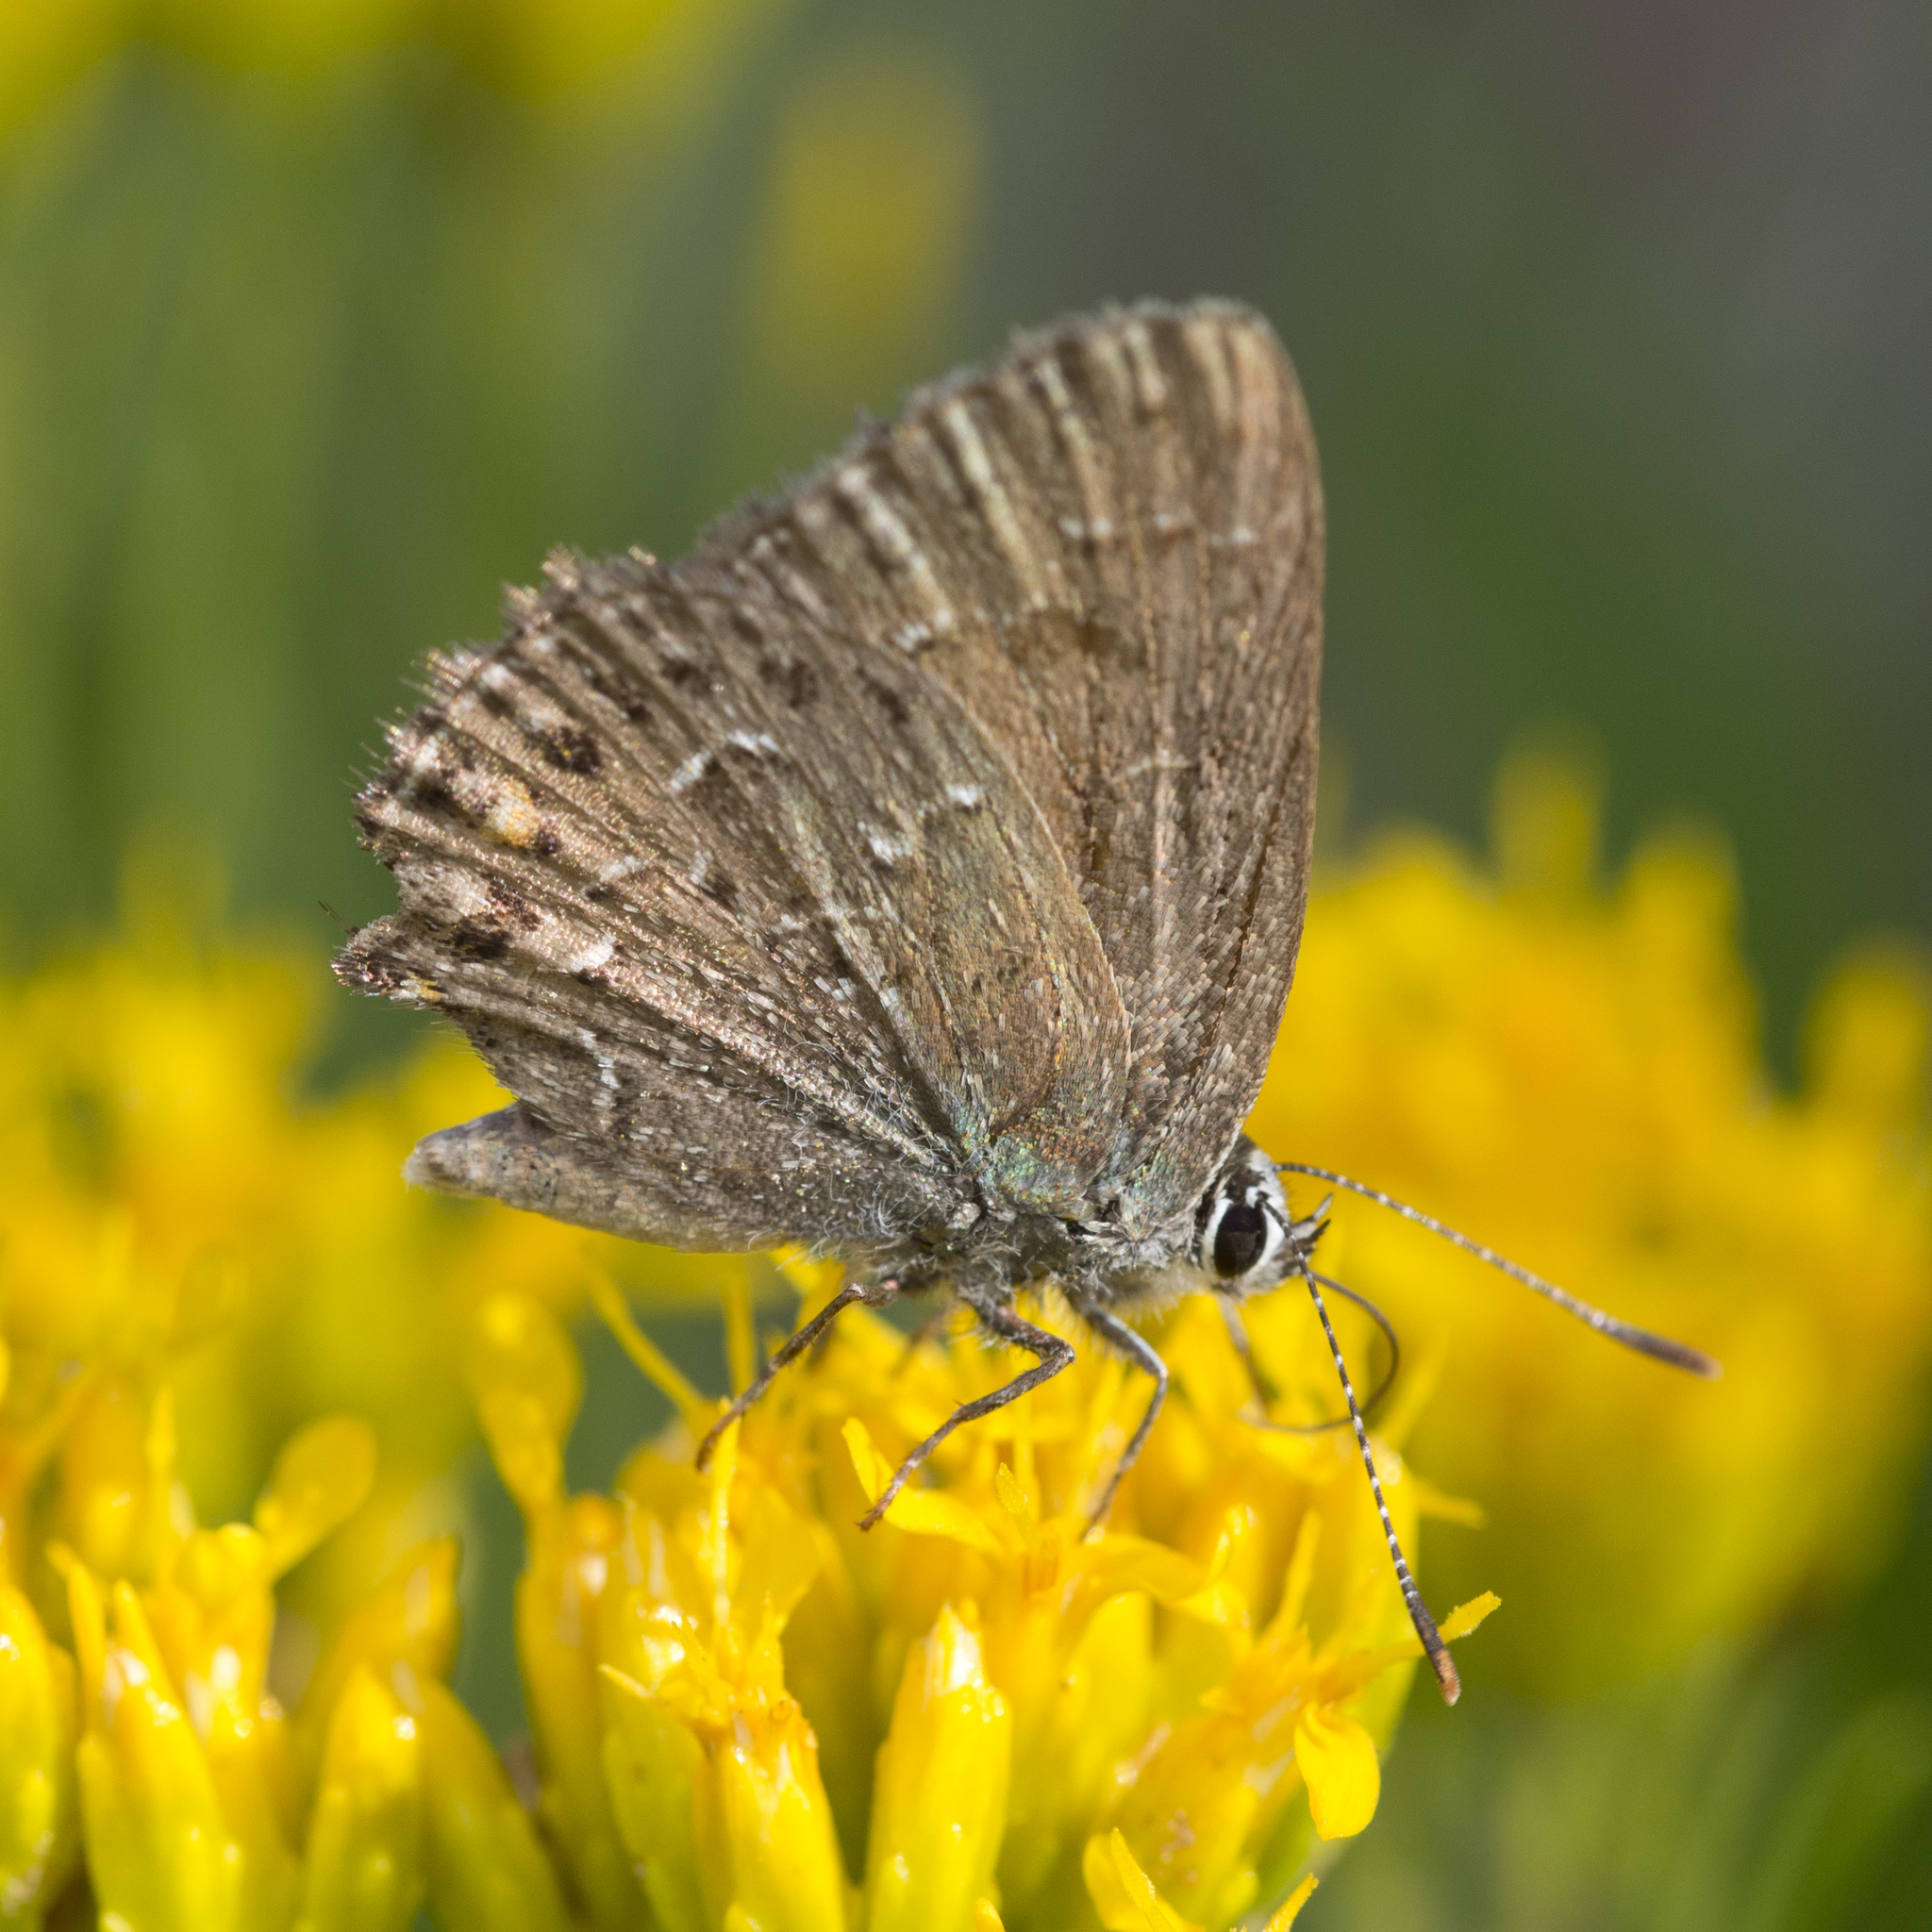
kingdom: Animalia
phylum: Arthropoda
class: Insecta
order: Lepidoptera
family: Lycaenidae
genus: Satyrium
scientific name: Satyrium behrii
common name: Behr's hairstreak
